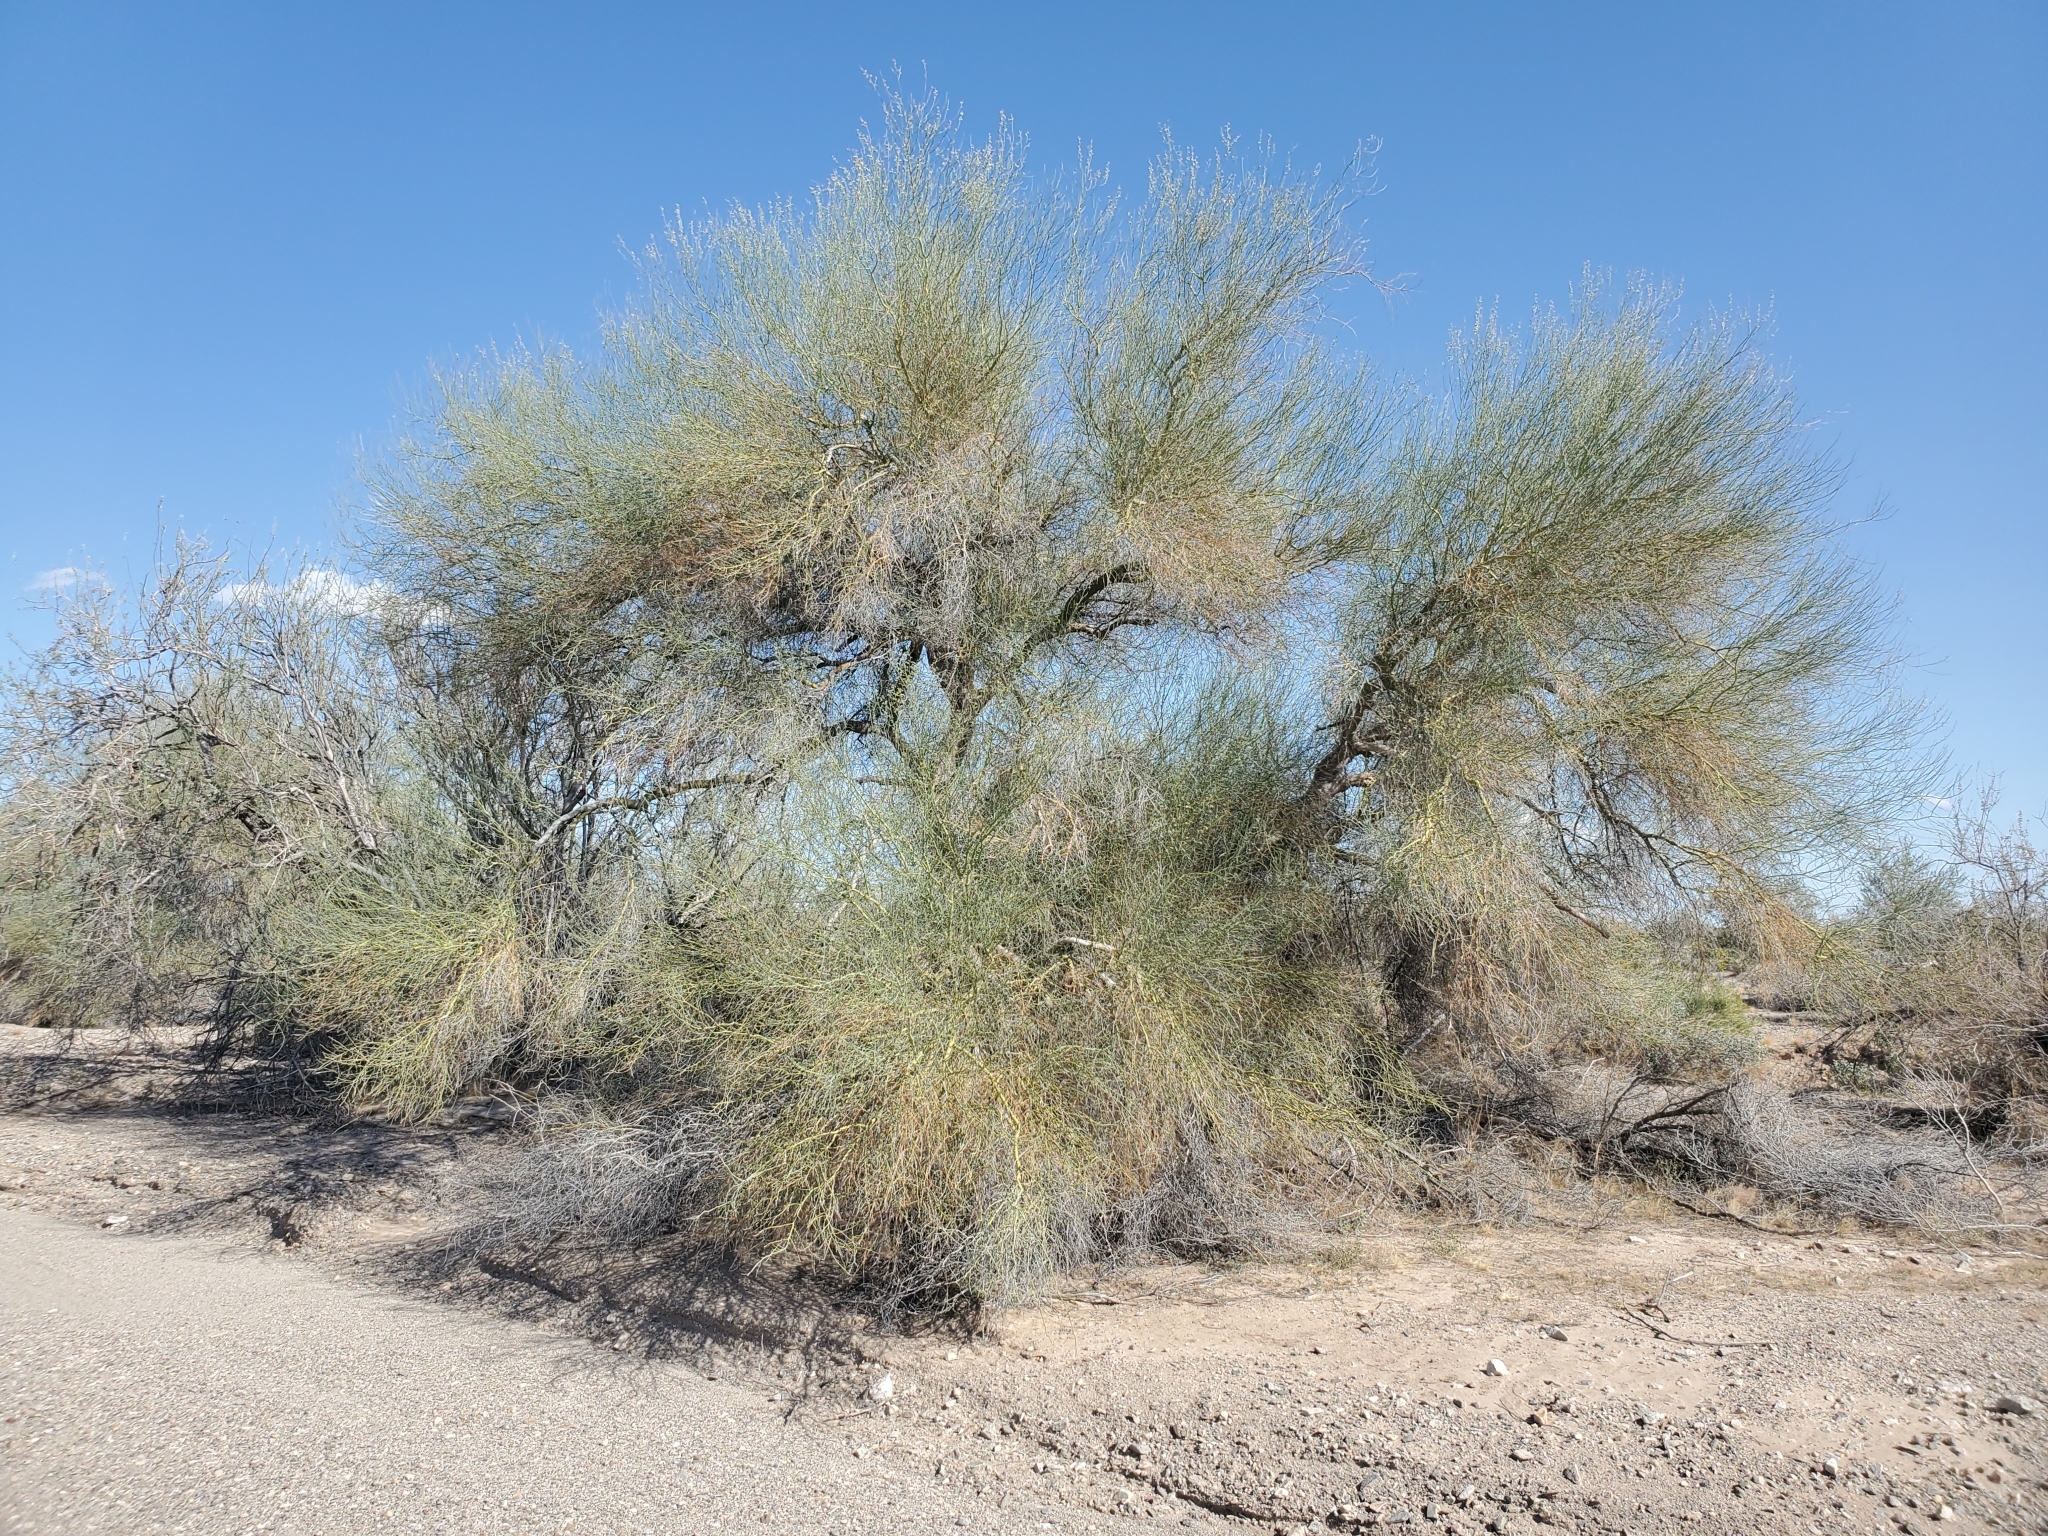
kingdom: Plantae
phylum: Tracheophyta
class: Magnoliopsida
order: Fabales
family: Fabaceae
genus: Parkinsonia
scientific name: Parkinsonia florida
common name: Blue paloverde
